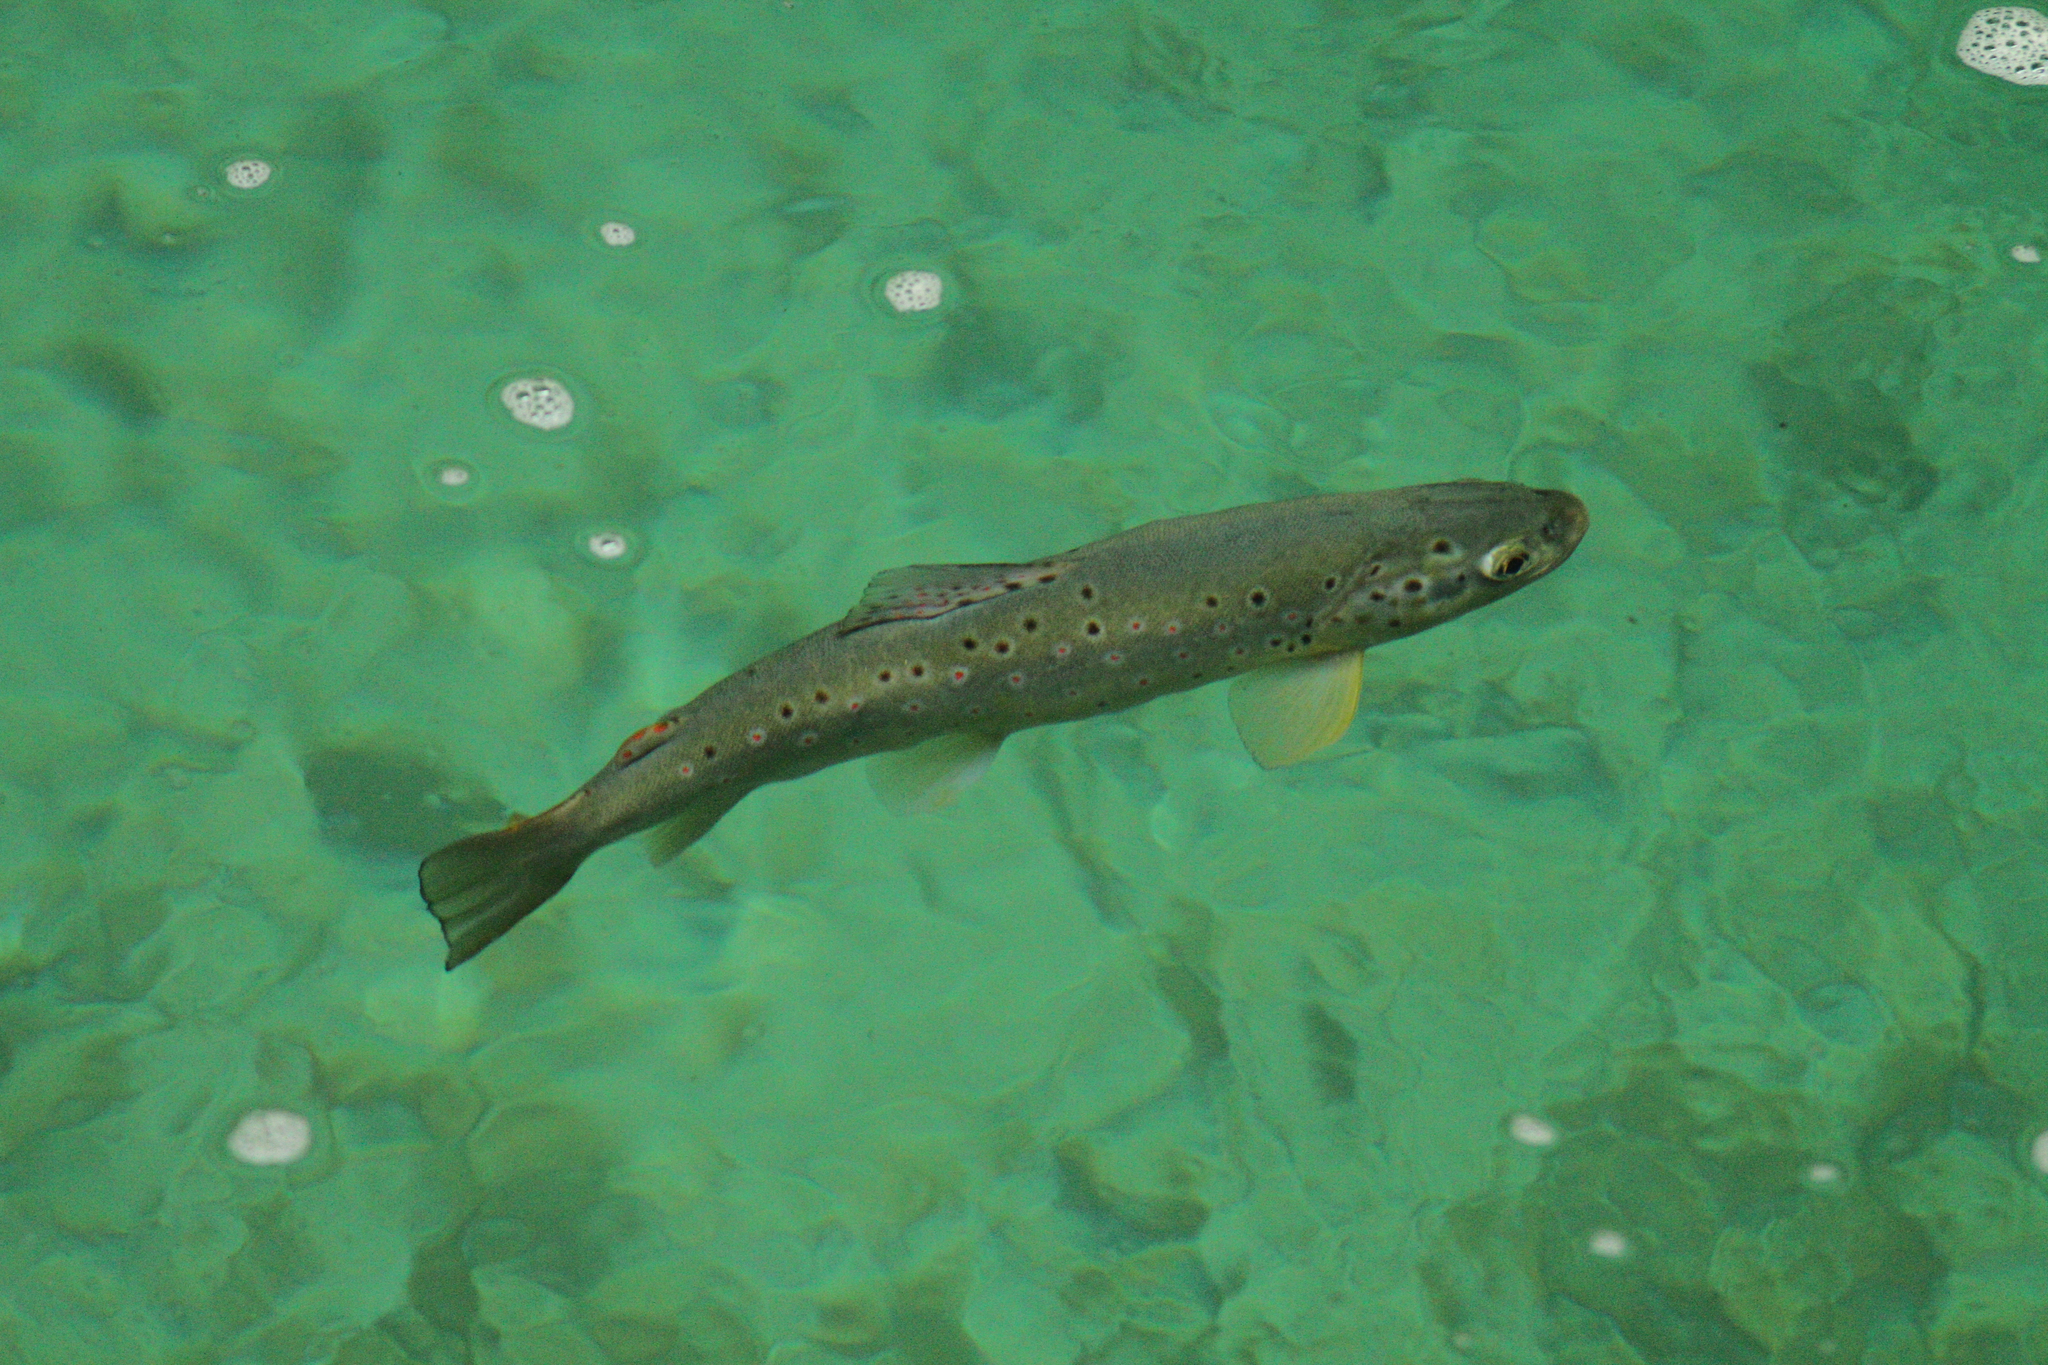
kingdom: Animalia
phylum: Chordata
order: Salmoniformes
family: Salmonidae
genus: Salmo
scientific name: Salmo trutta
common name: Brown trout
